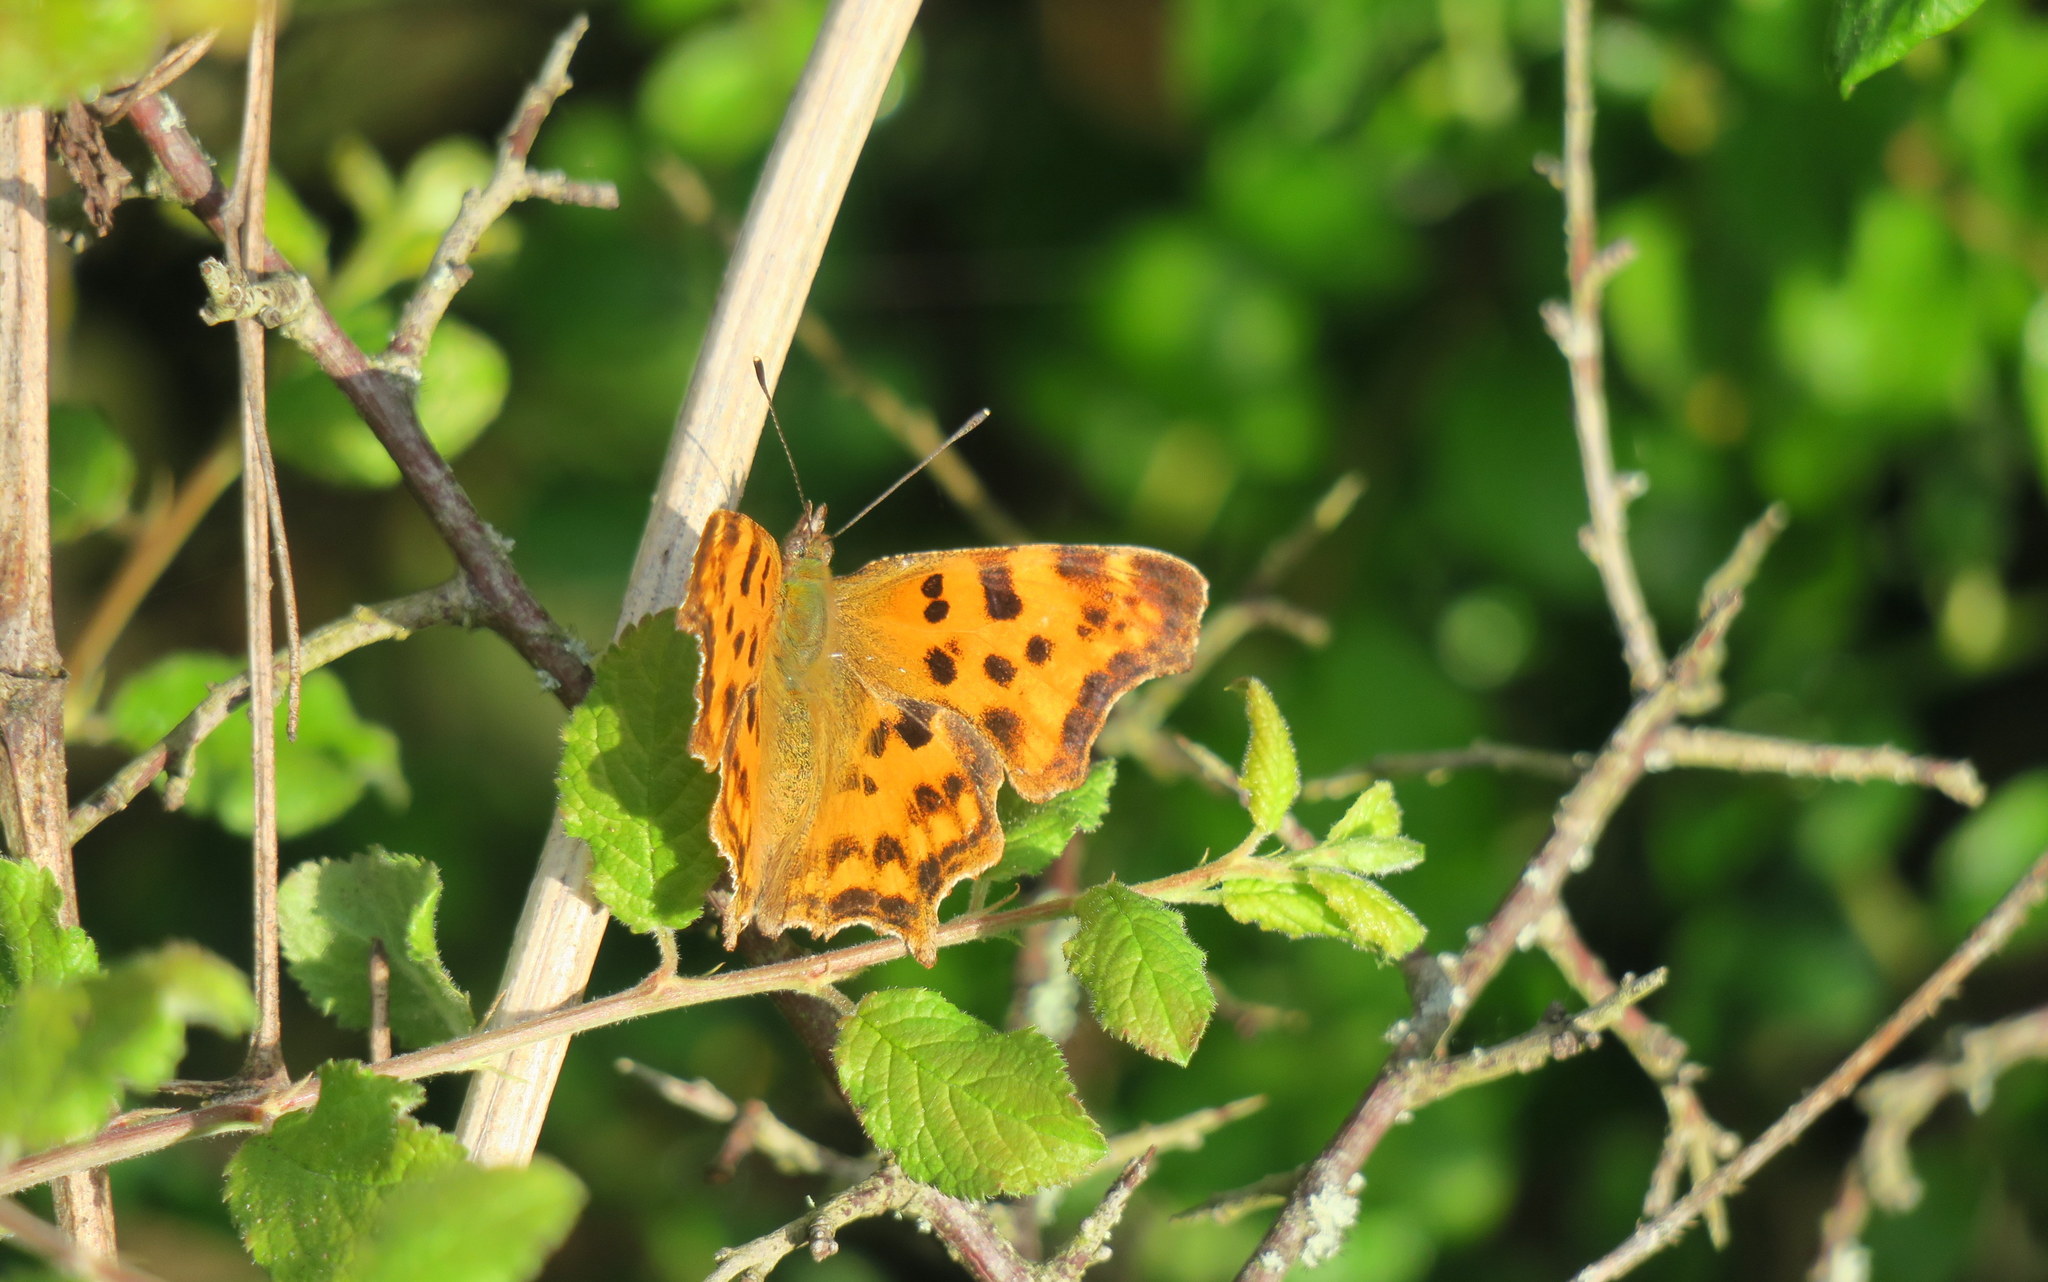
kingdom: Animalia
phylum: Arthropoda
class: Insecta
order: Lepidoptera
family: Nymphalidae
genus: Polygonia
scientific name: Polygonia c-album
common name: Comma
